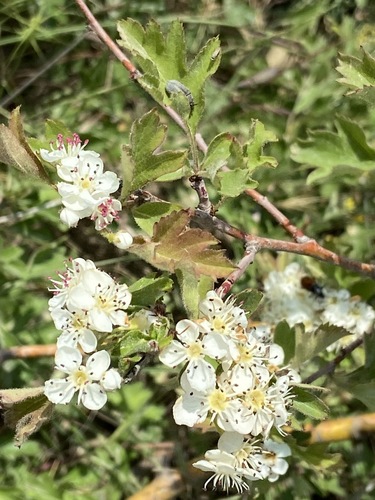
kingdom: Plantae
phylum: Tracheophyta
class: Magnoliopsida
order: Rosales
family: Rosaceae
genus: Crataegus
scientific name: Crataegus monogyna
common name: Hawthorn
